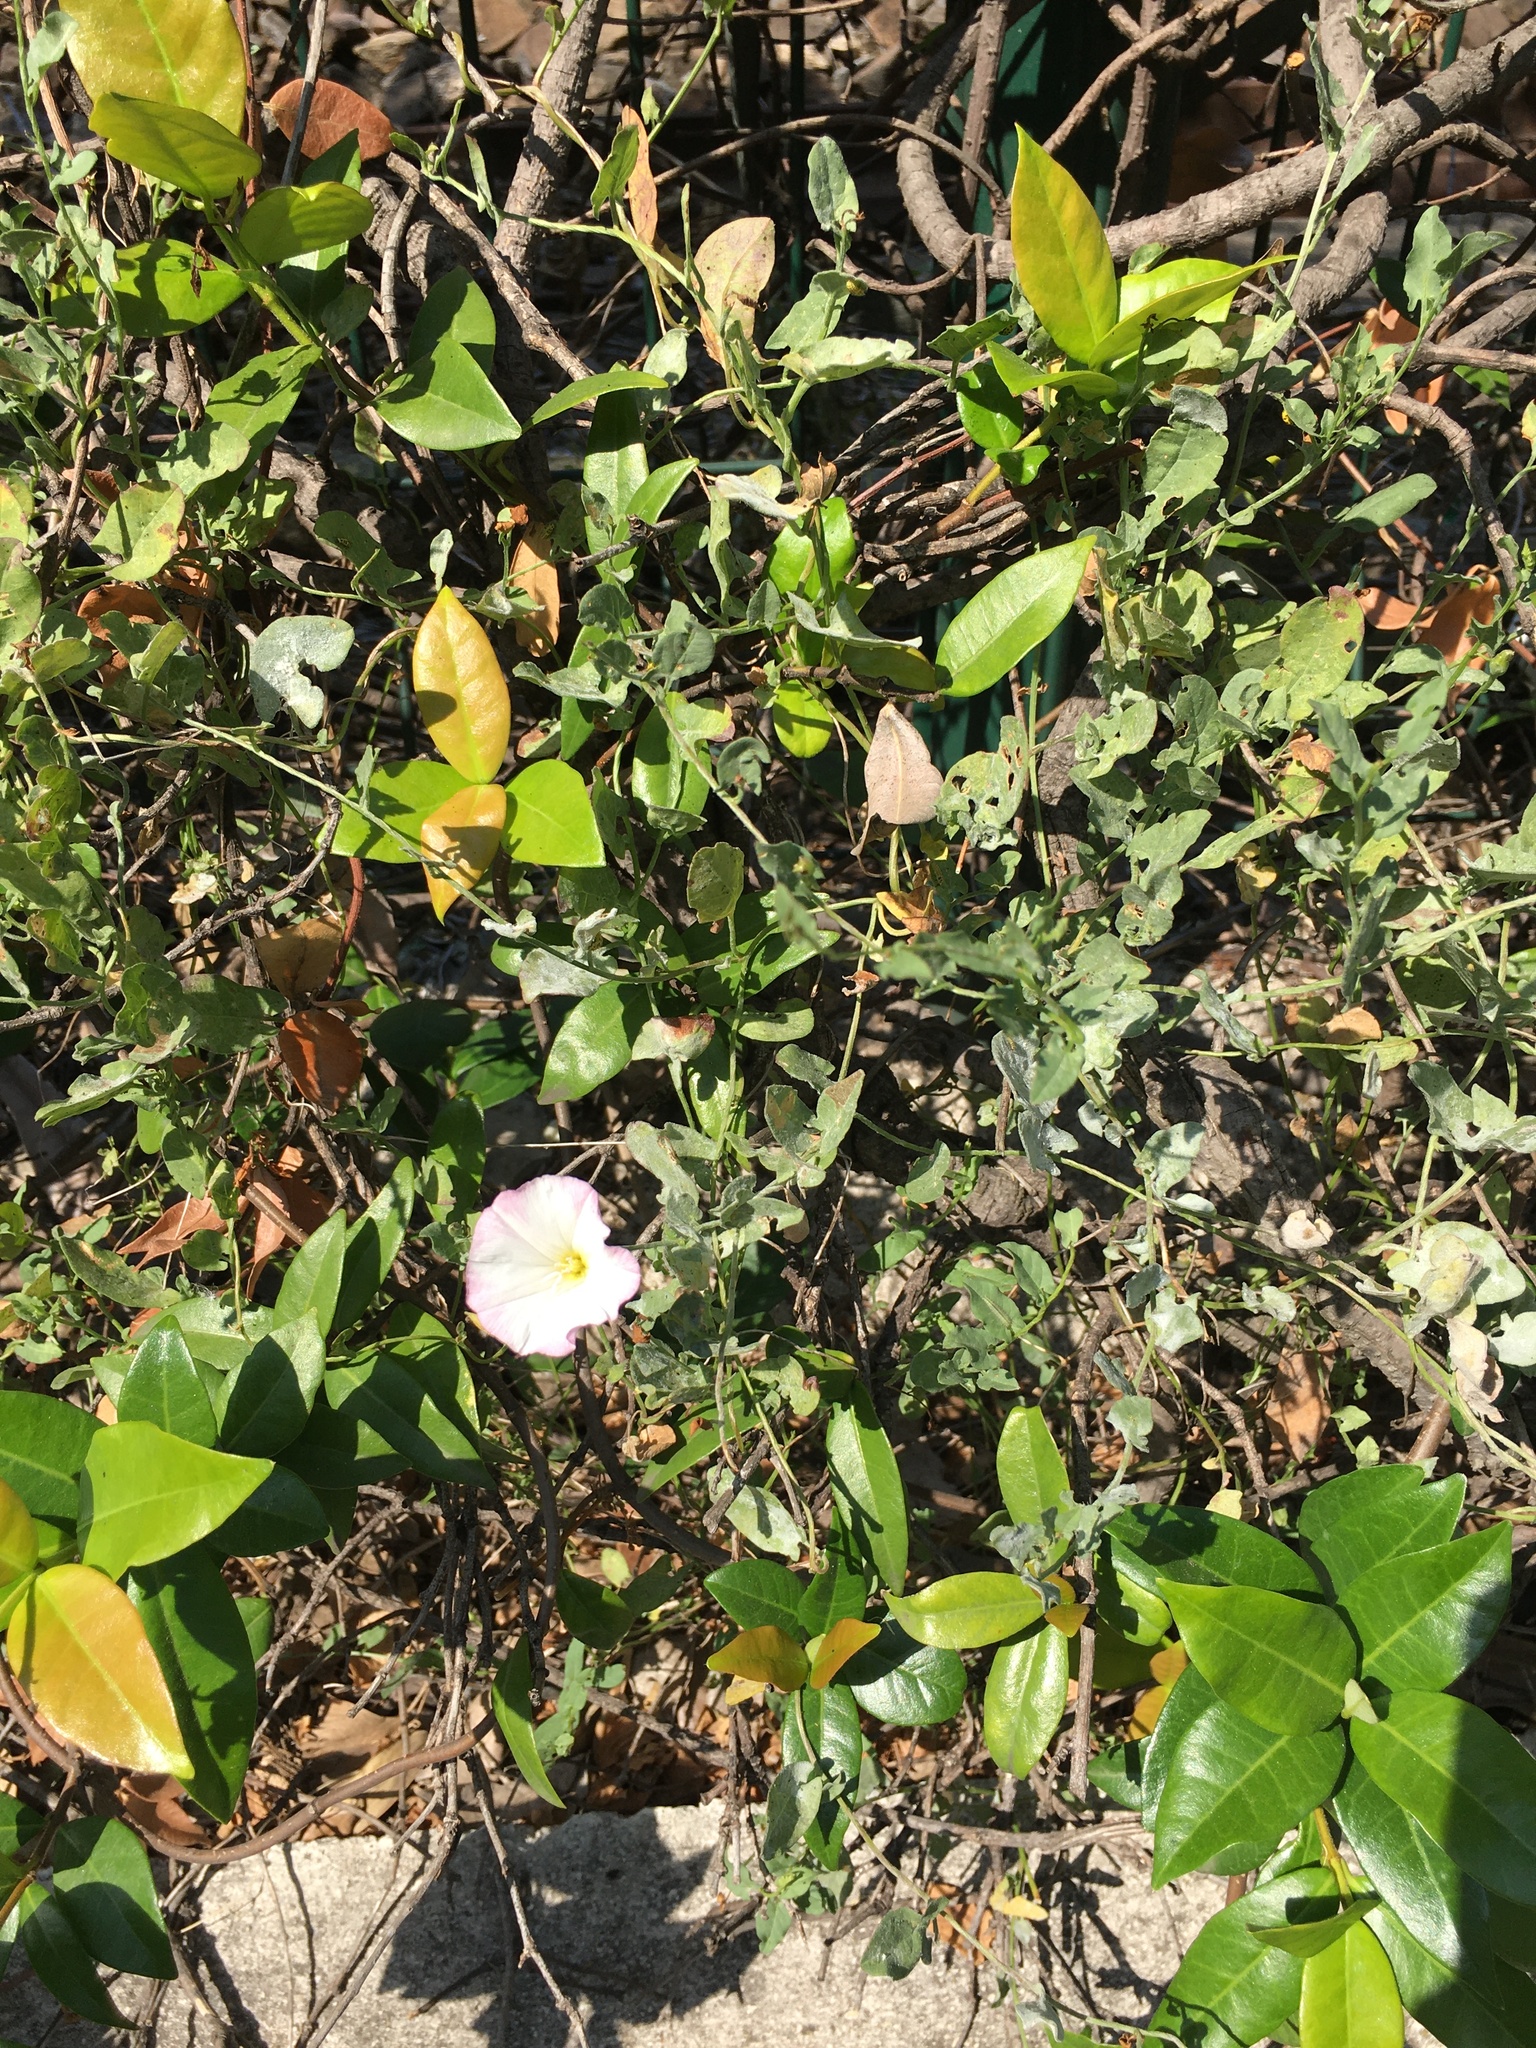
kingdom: Plantae
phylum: Tracheophyta
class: Magnoliopsida
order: Solanales
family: Convolvulaceae
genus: Convolvulus
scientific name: Convolvulus arvensis
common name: Field bindweed
